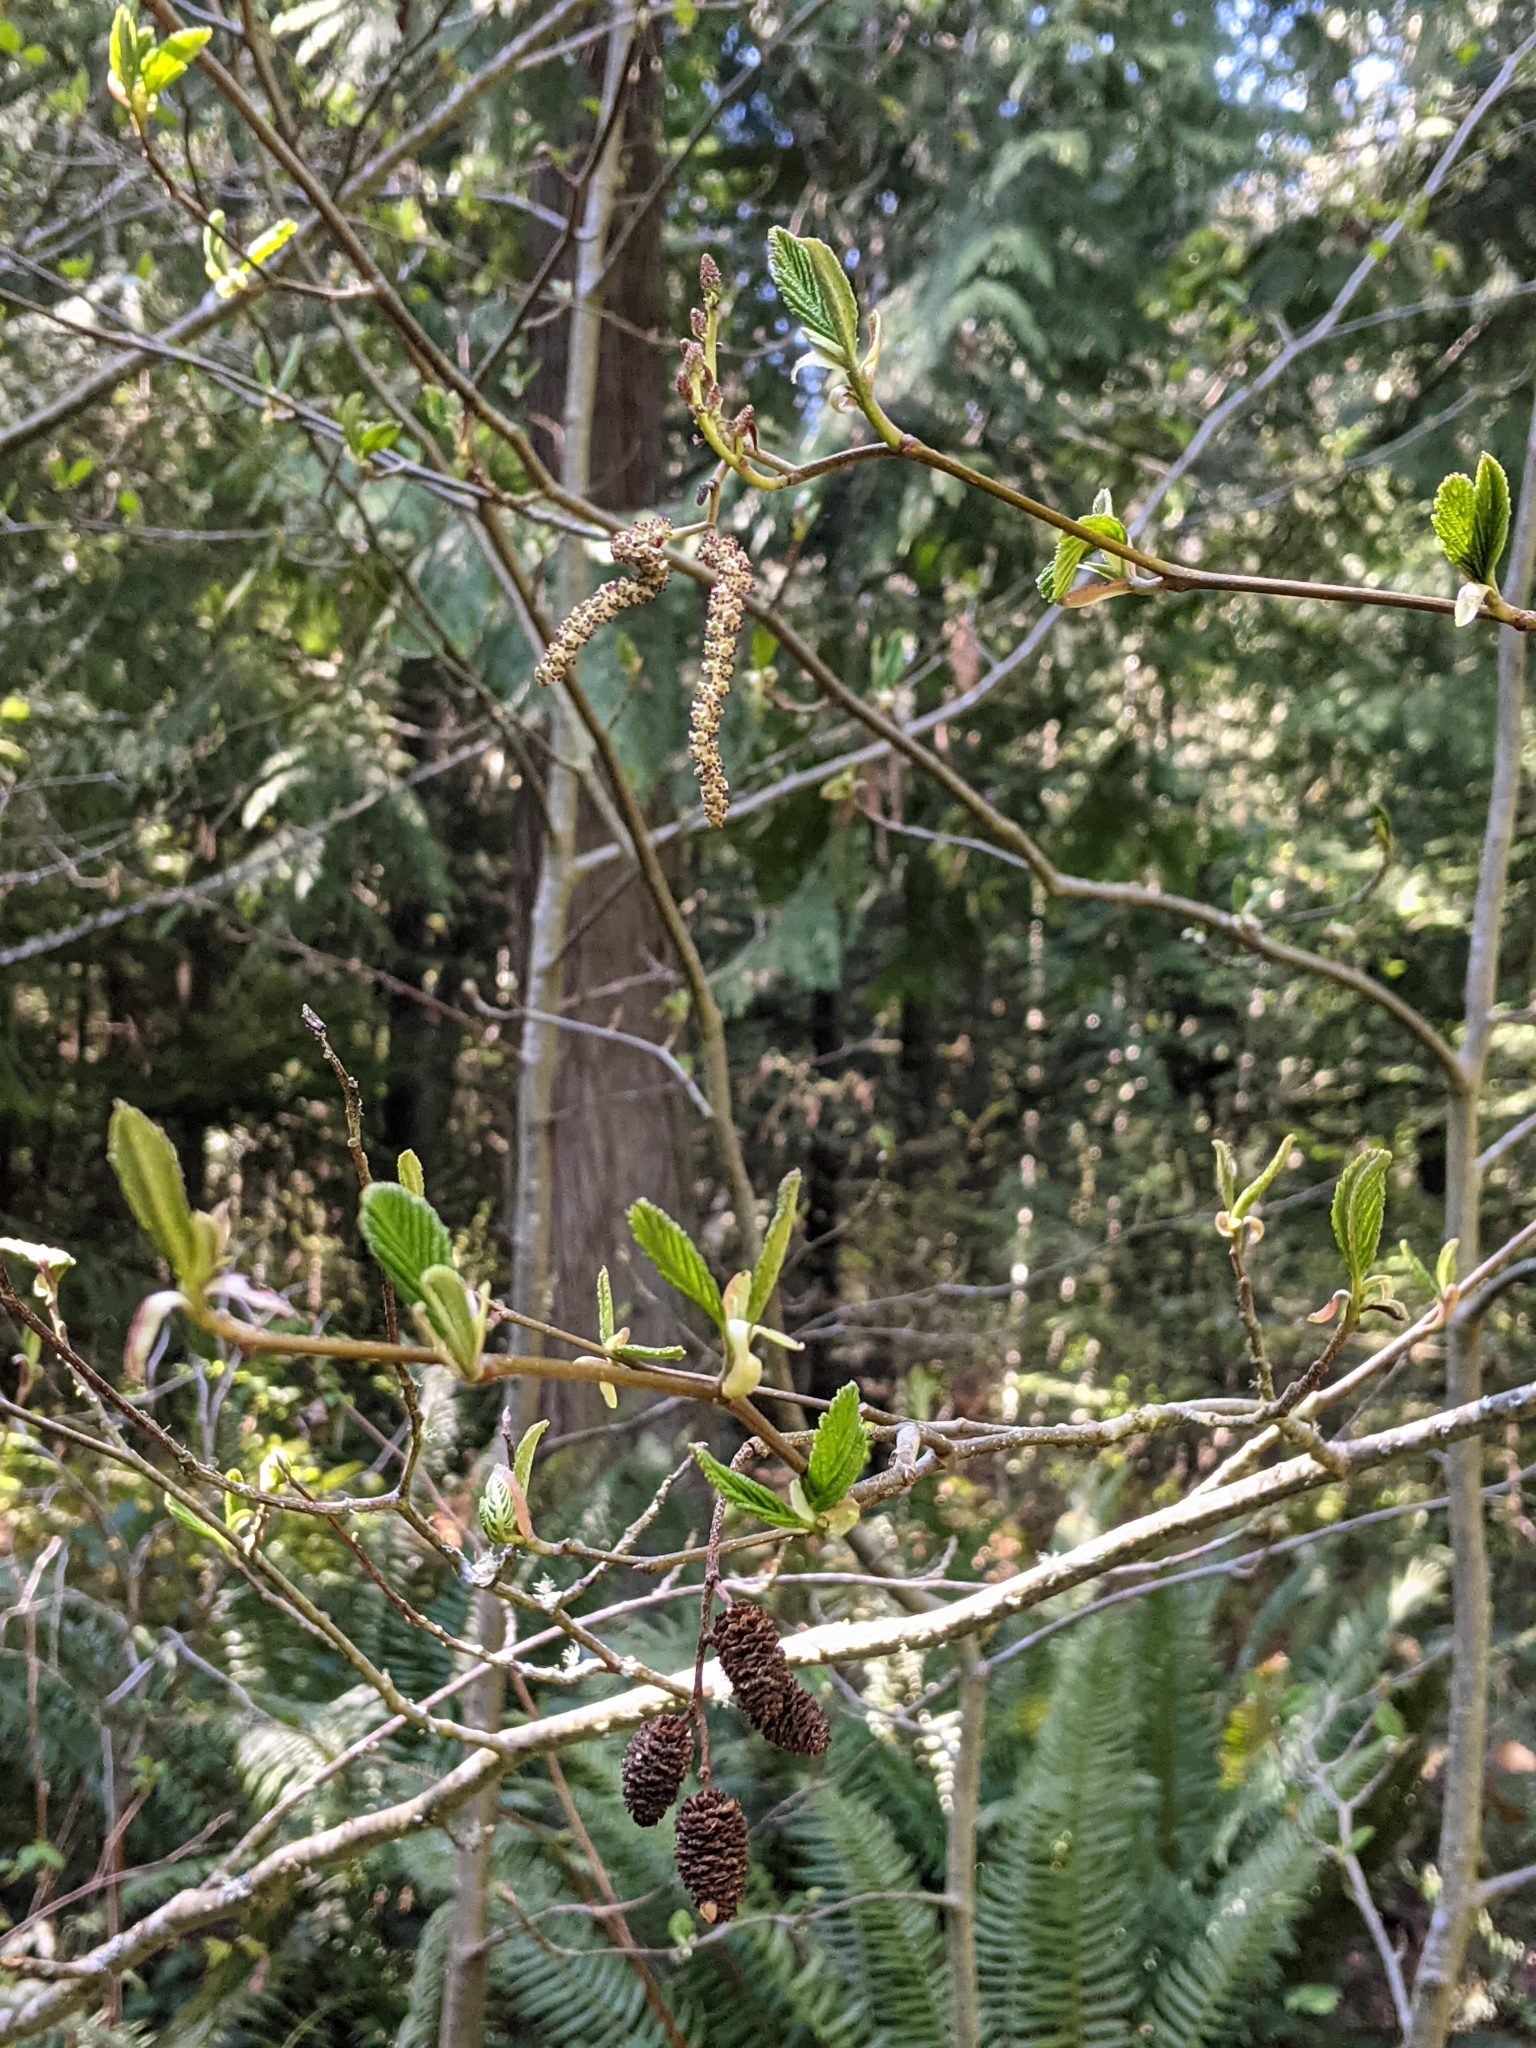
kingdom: Plantae
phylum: Tracheophyta
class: Magnoliopsida
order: Fagales
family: Betulaceae
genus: Alnus
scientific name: Alnus rubra
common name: Red alder
